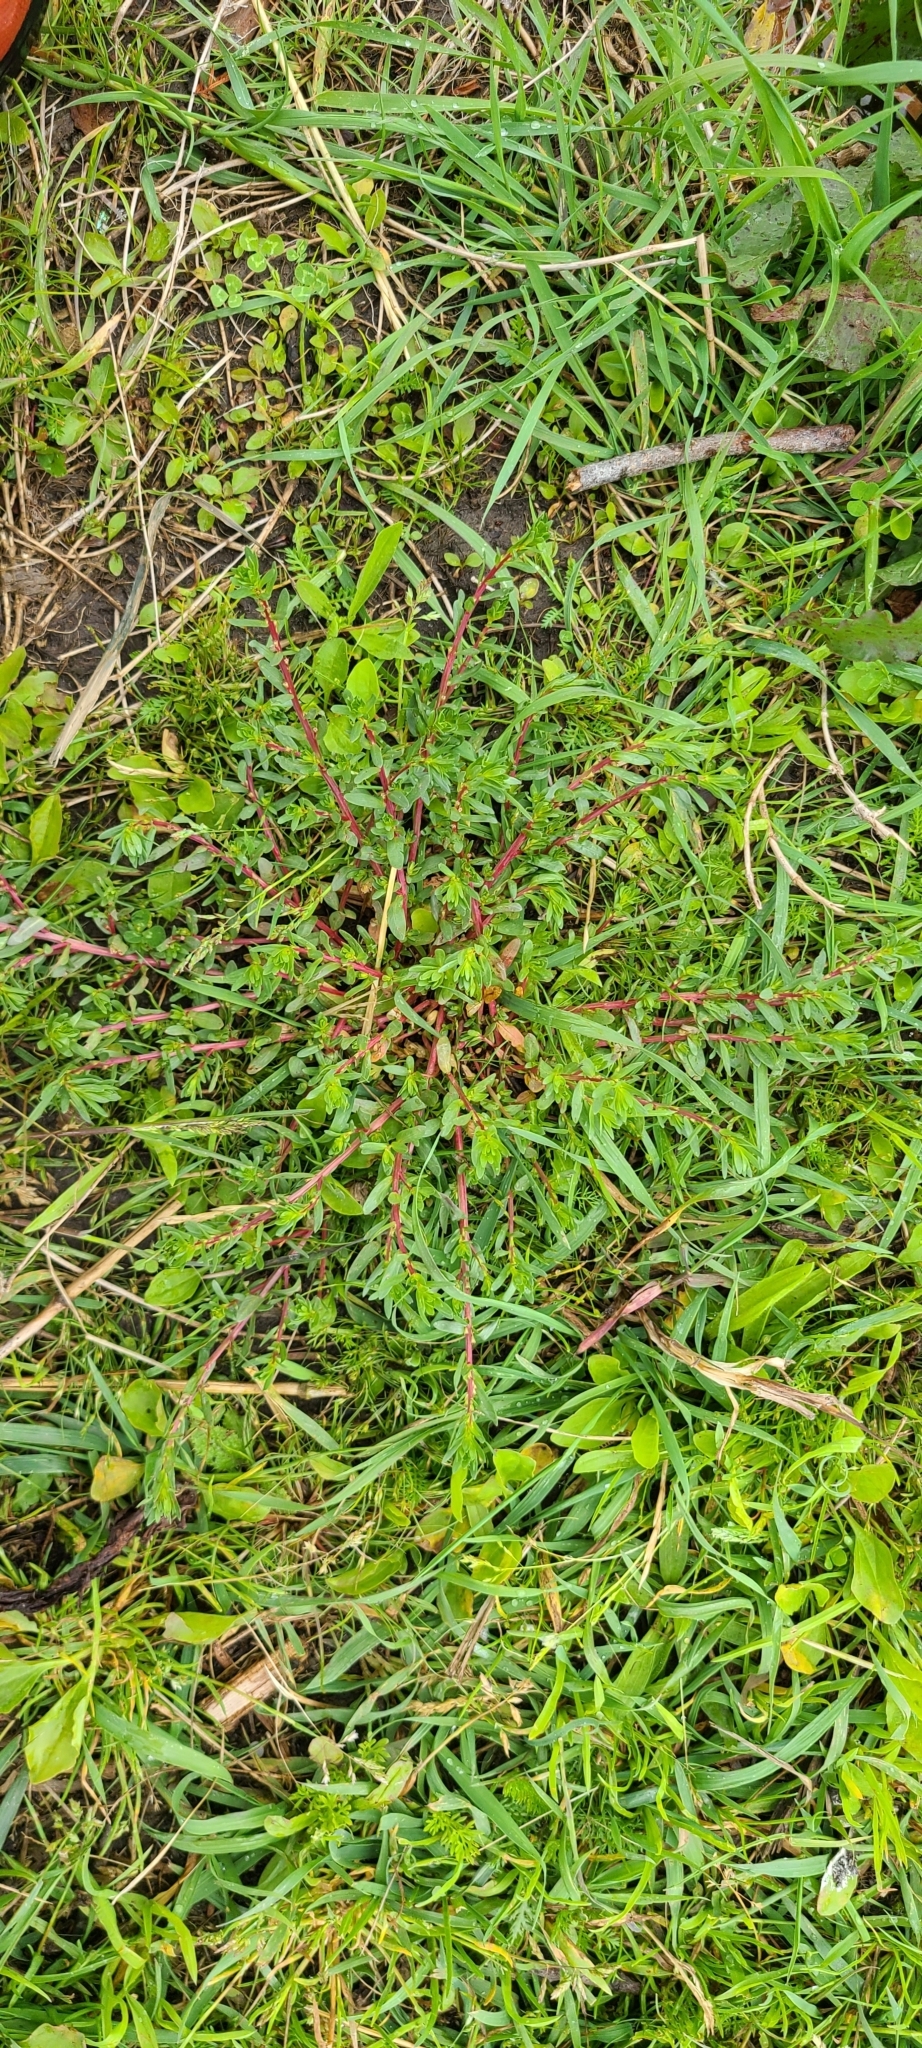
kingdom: Plantae
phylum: Tracheophyta
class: Magnoliopsida
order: Myrtales
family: Lythraceae
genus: Lythrum
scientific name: Lythrum hyssopifolia
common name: Grass-poly
